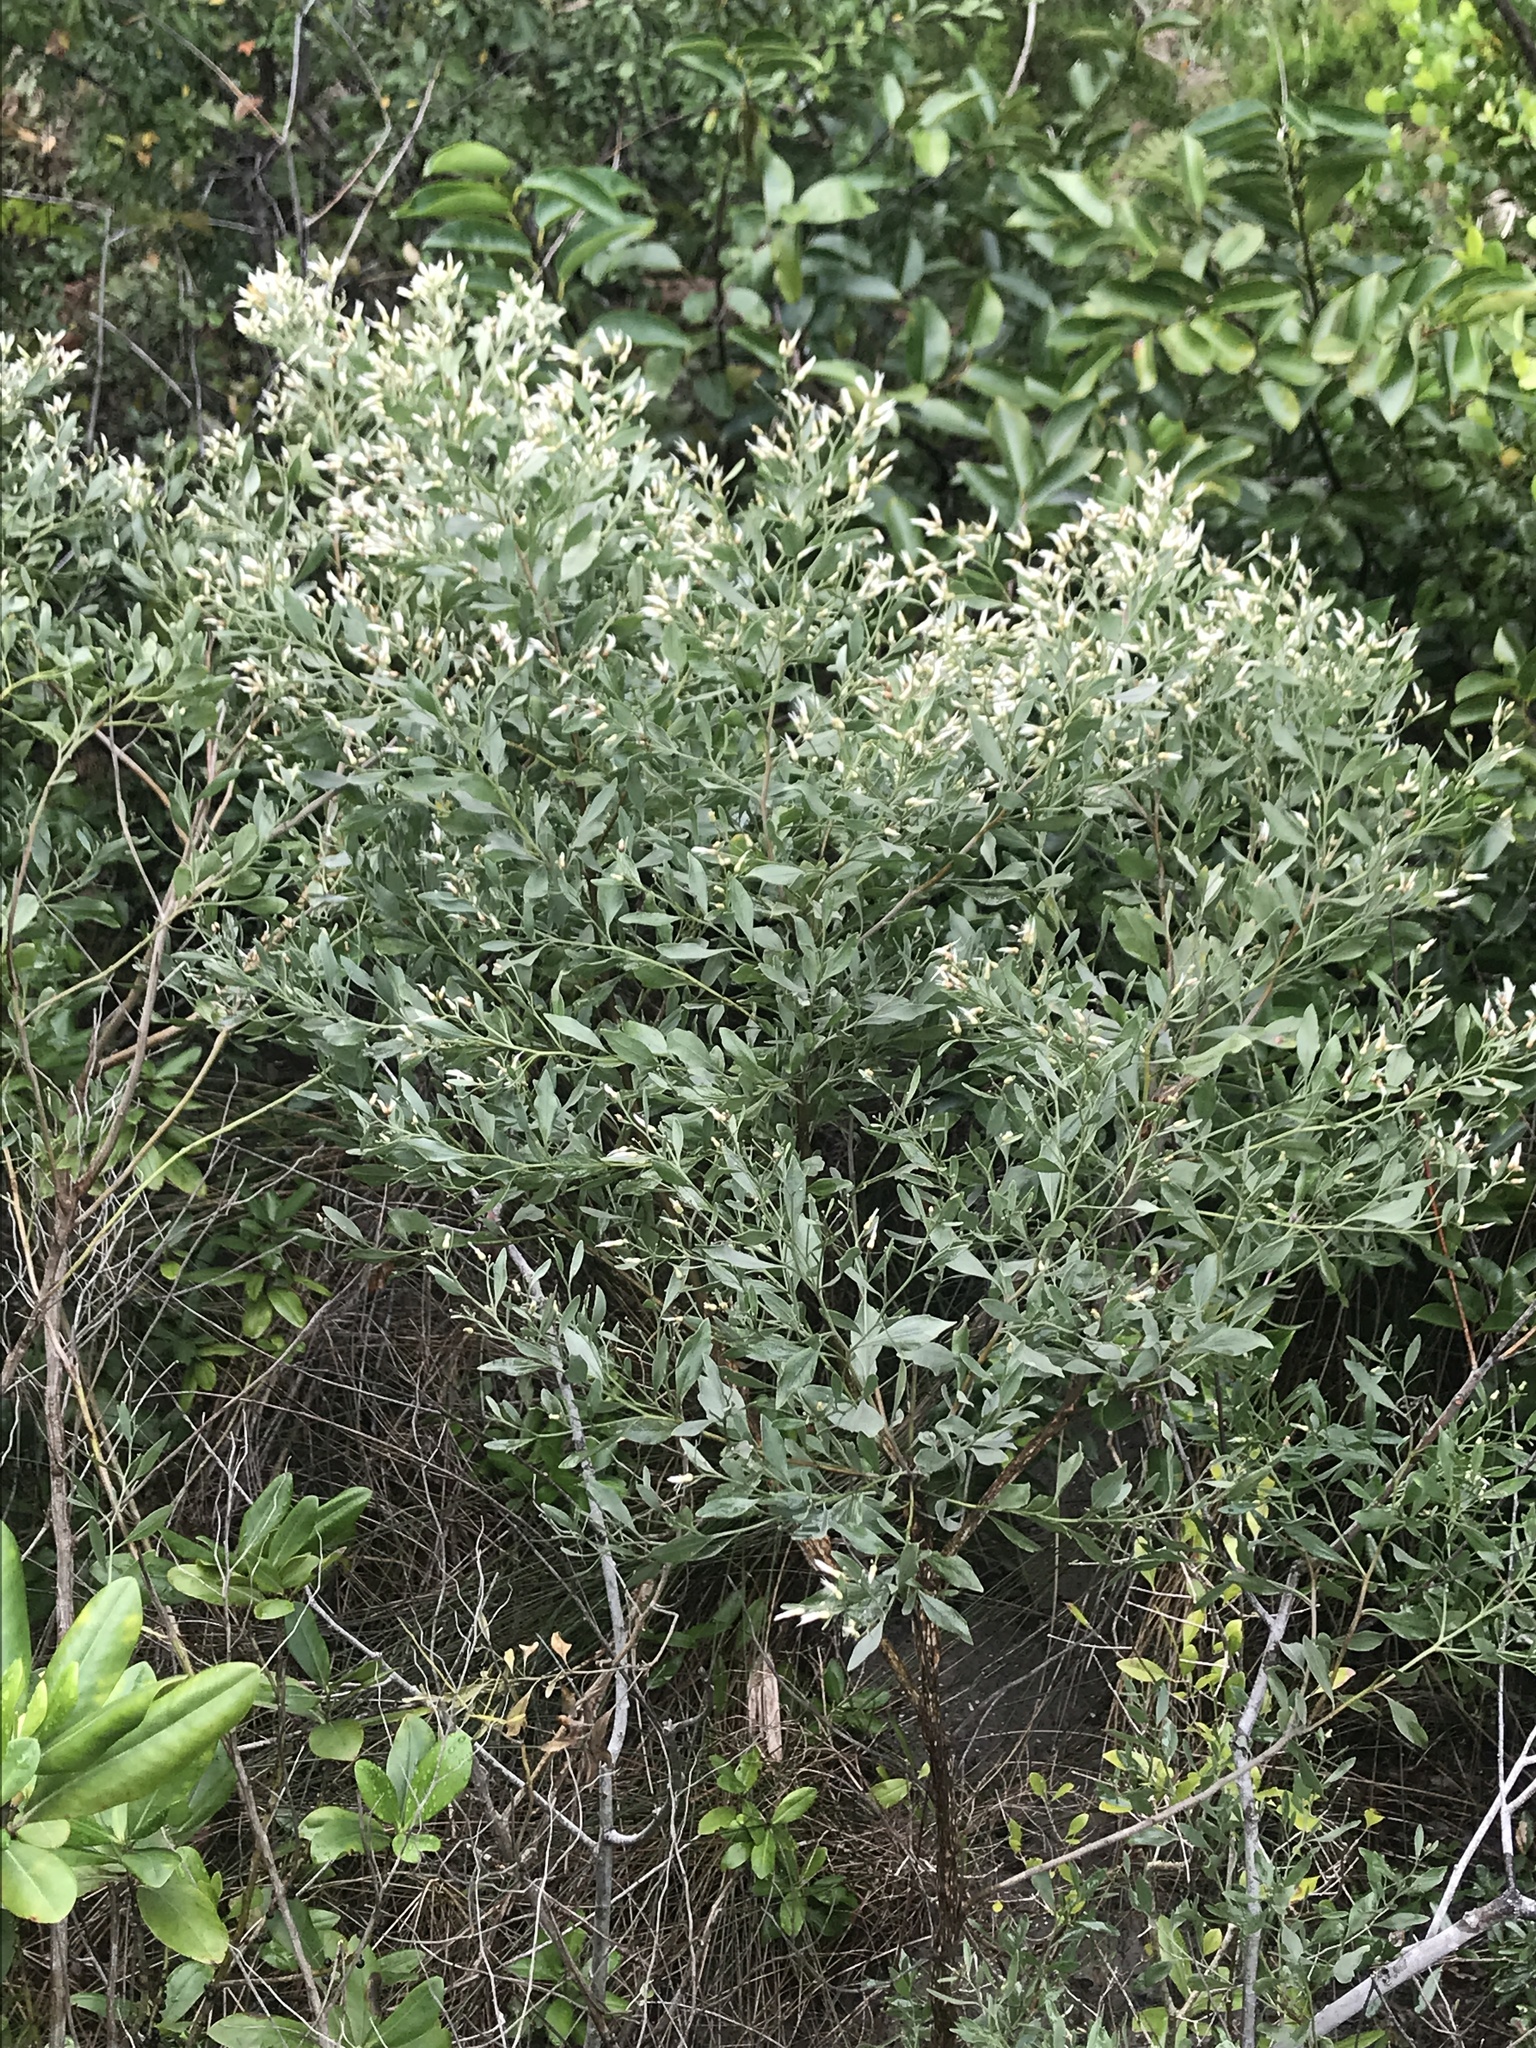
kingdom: Plantae
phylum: Tracheophyta
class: Magnoliopsida
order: Asterales
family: Asteraceae
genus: Baccharis
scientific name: Baccharis halimifolia
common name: Eastern baccharis
